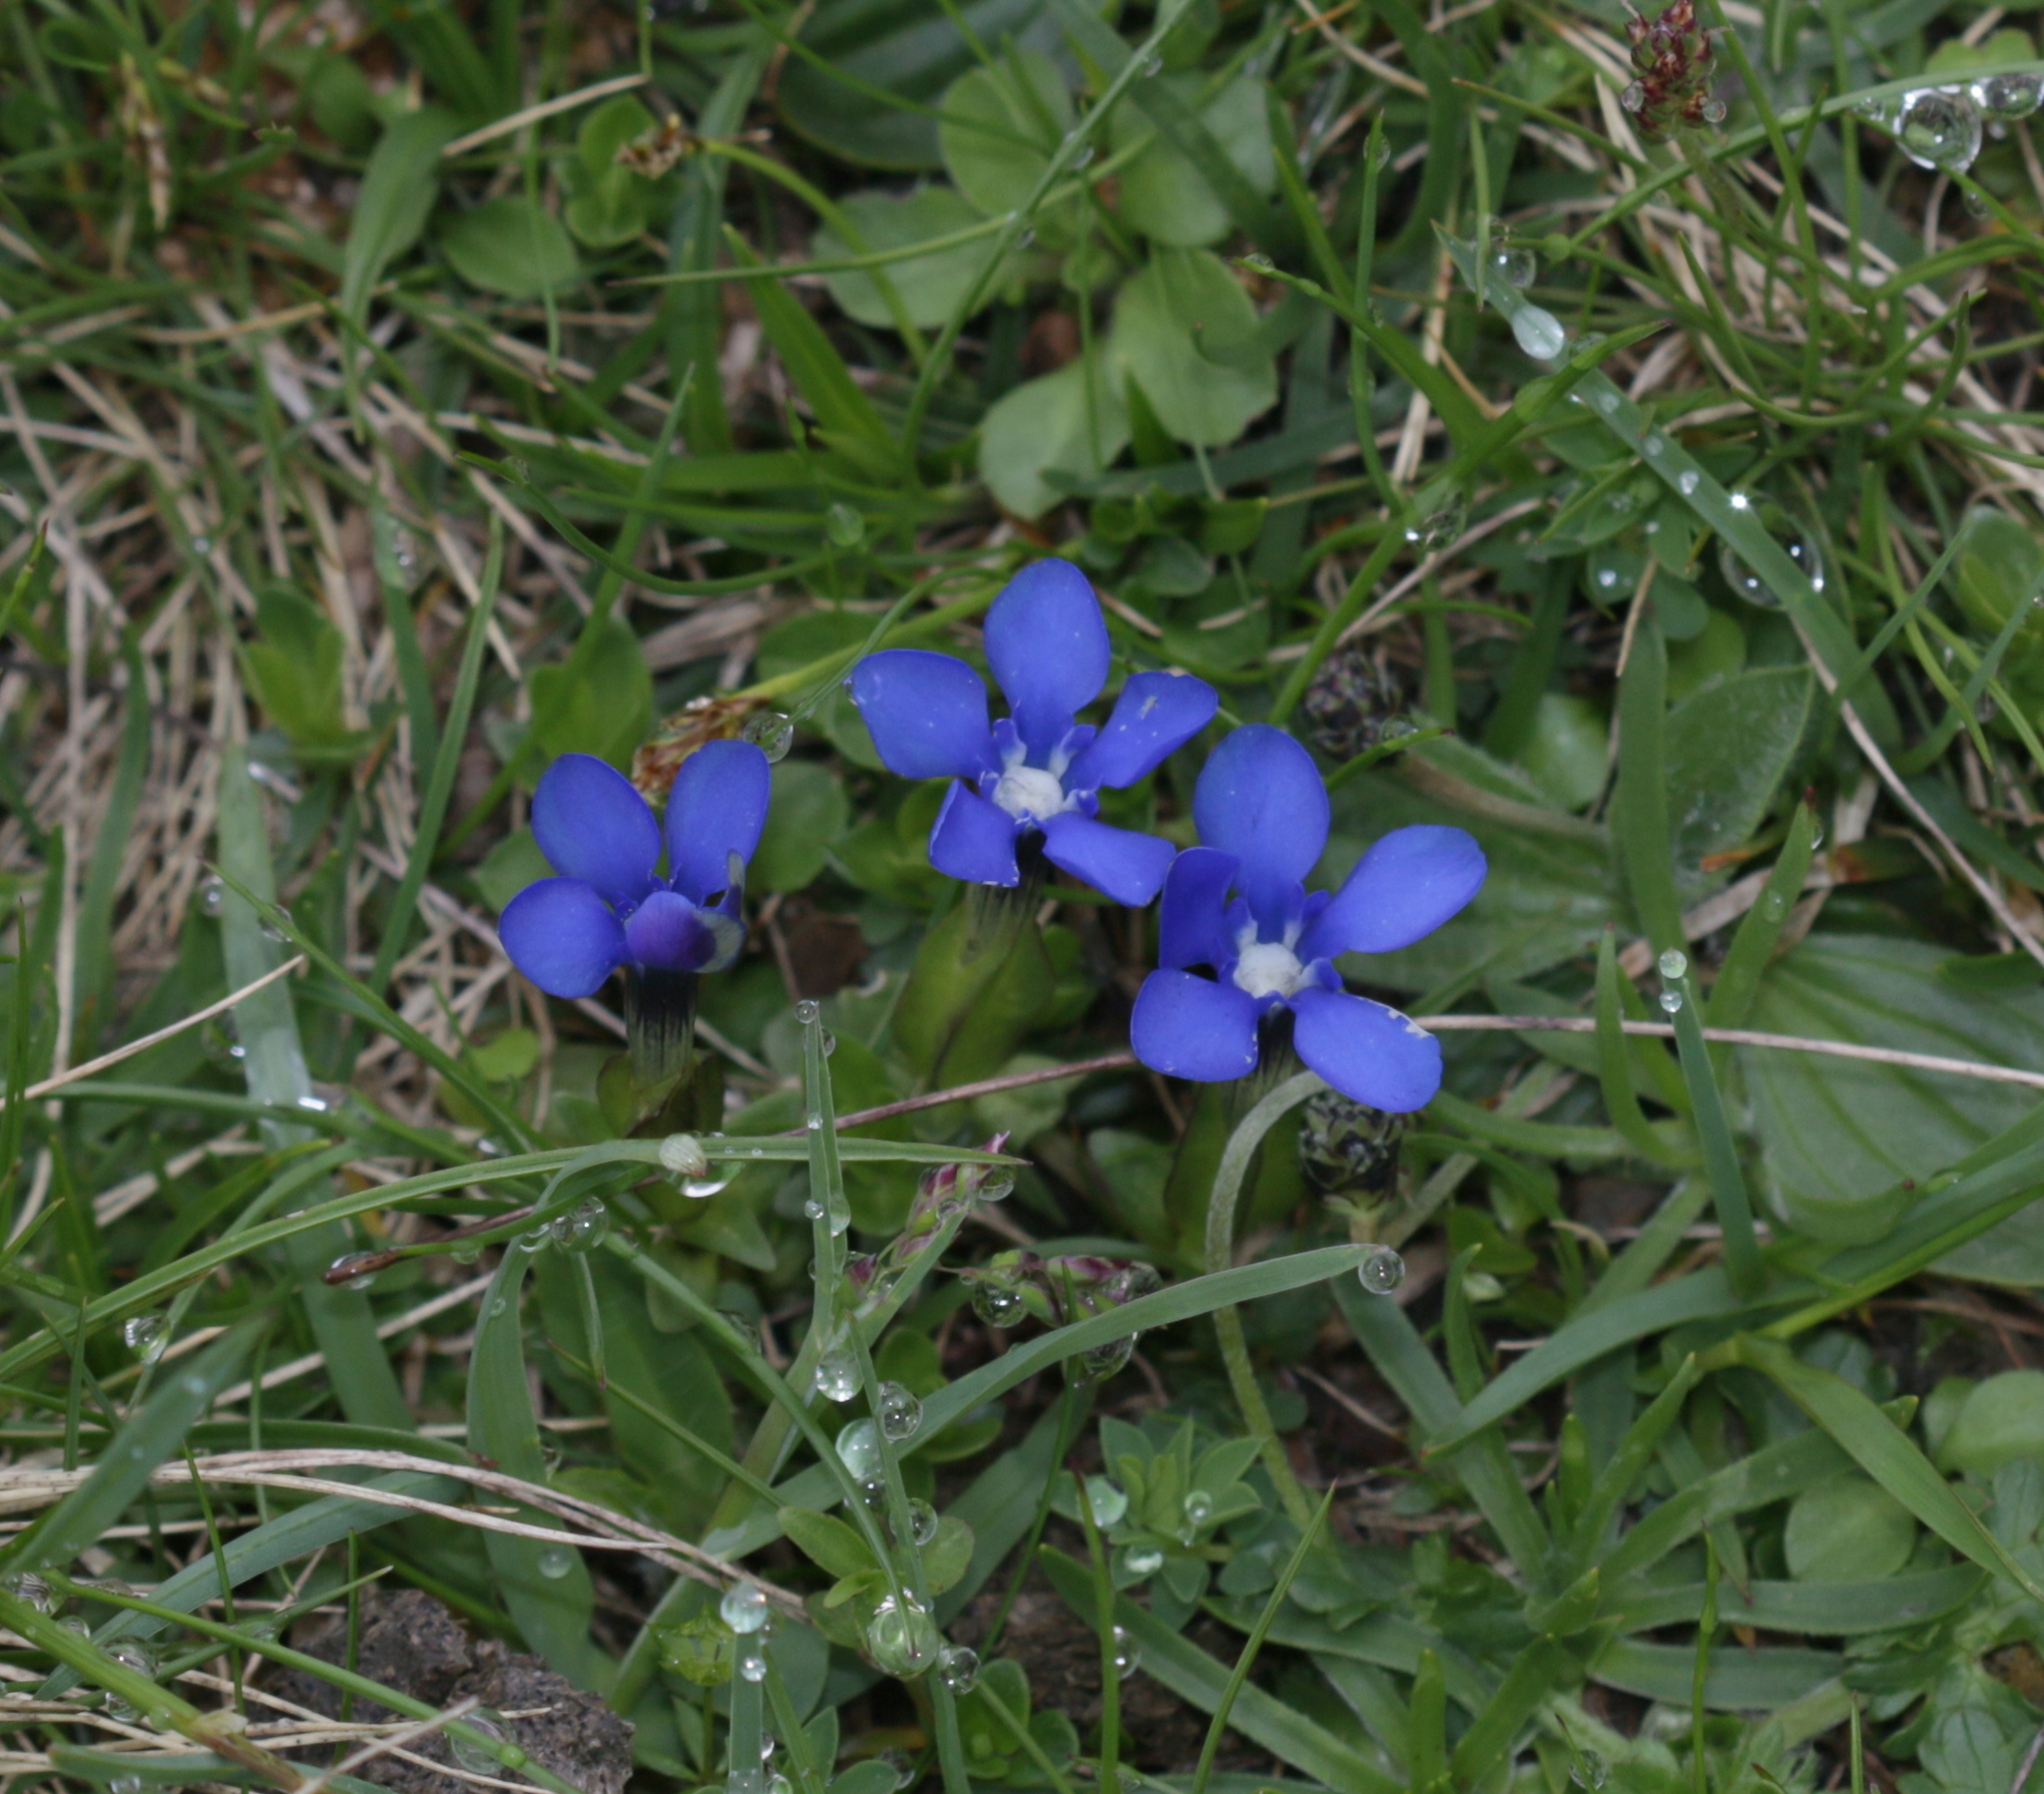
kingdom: Plantae
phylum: Tracheophyta
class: Magnoliopsida
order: Gentianales
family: Gentianaceae
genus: Gentiana
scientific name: Gentiana verna
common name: Spring gentian
